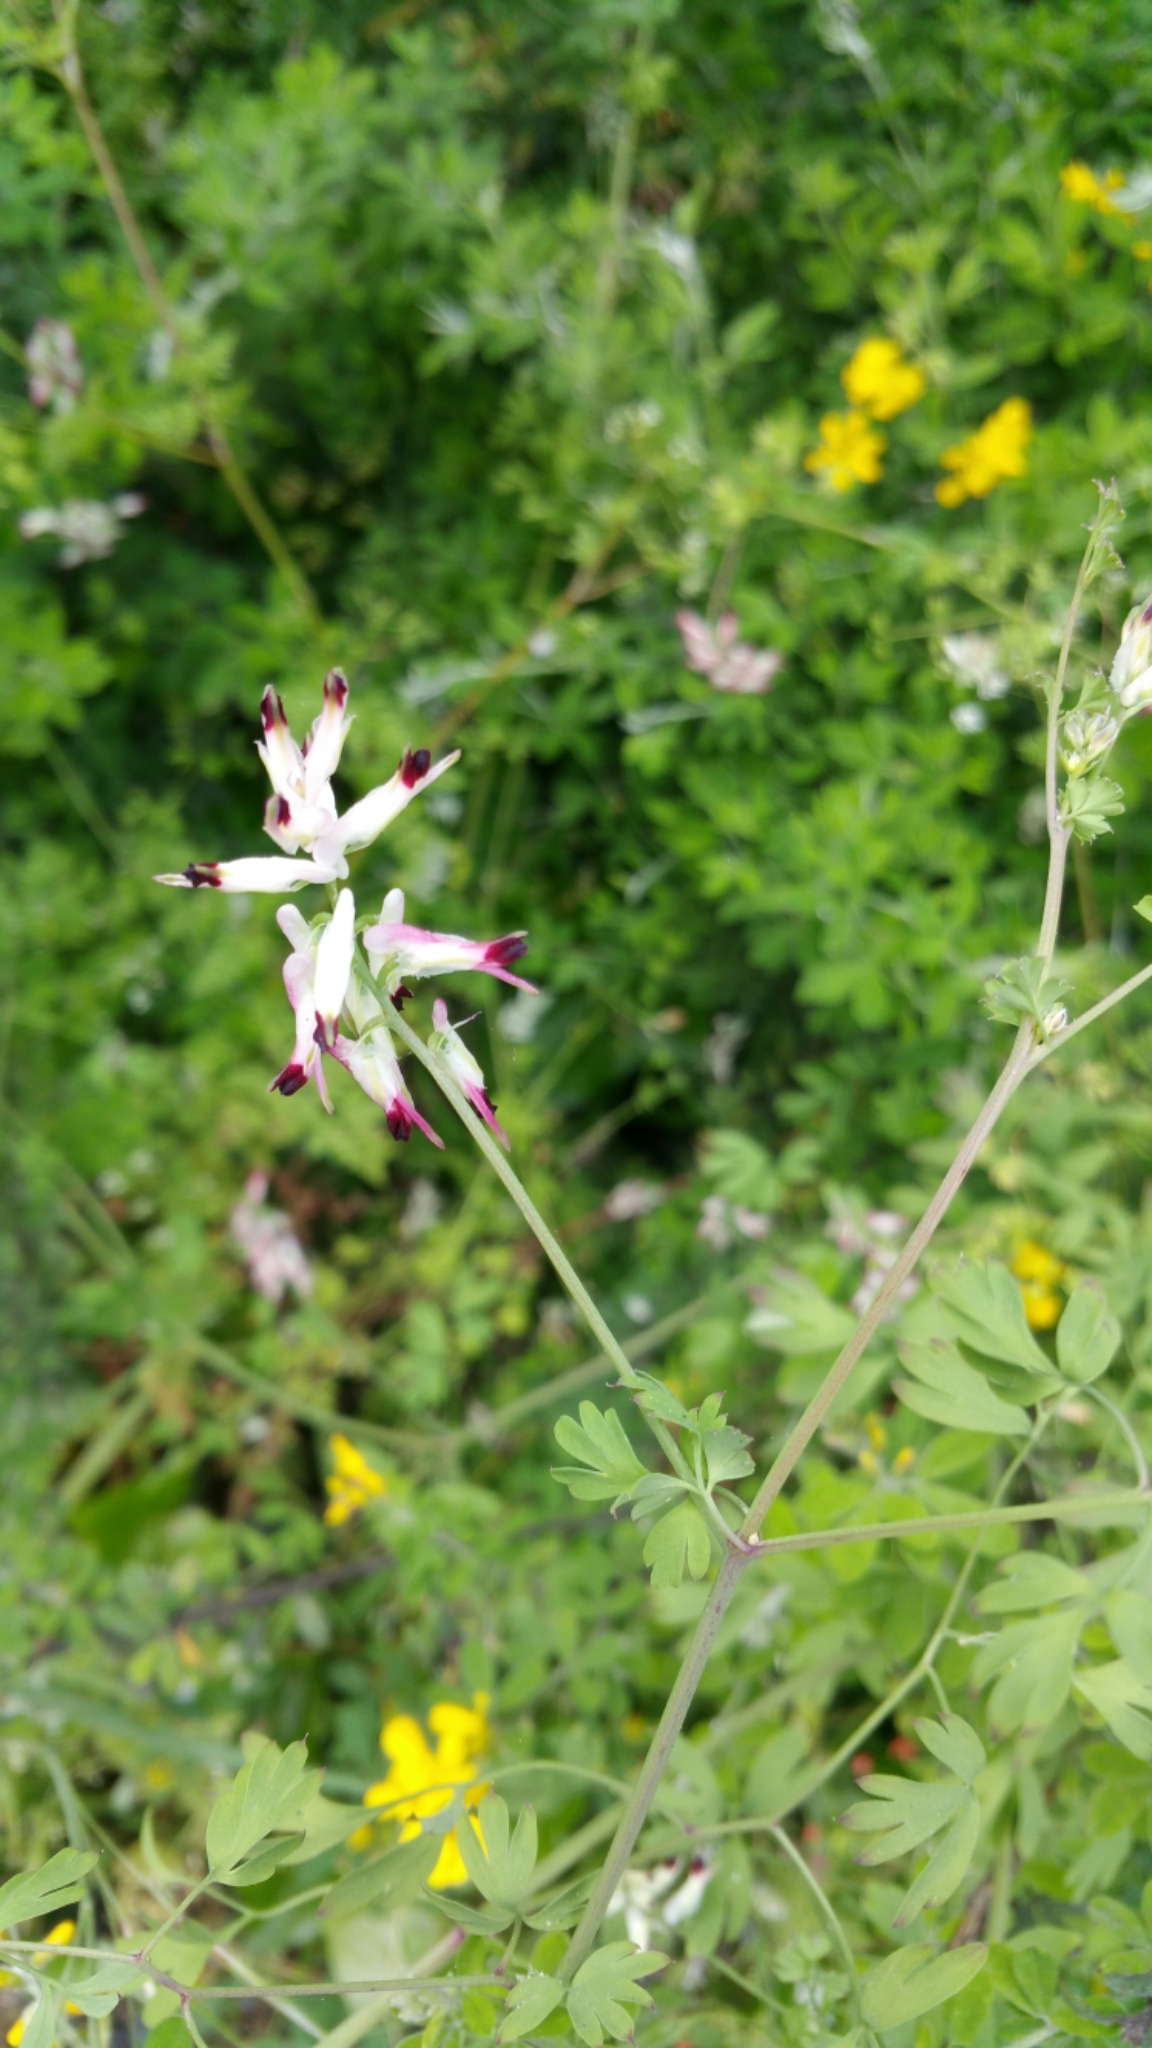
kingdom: Plantae
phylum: Tracheophyta
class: Magnoliopsida
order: Ranunculales
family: Papaveraceae
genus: Fumaria
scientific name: Fumaria capreolata
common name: White ramping-fumitory
